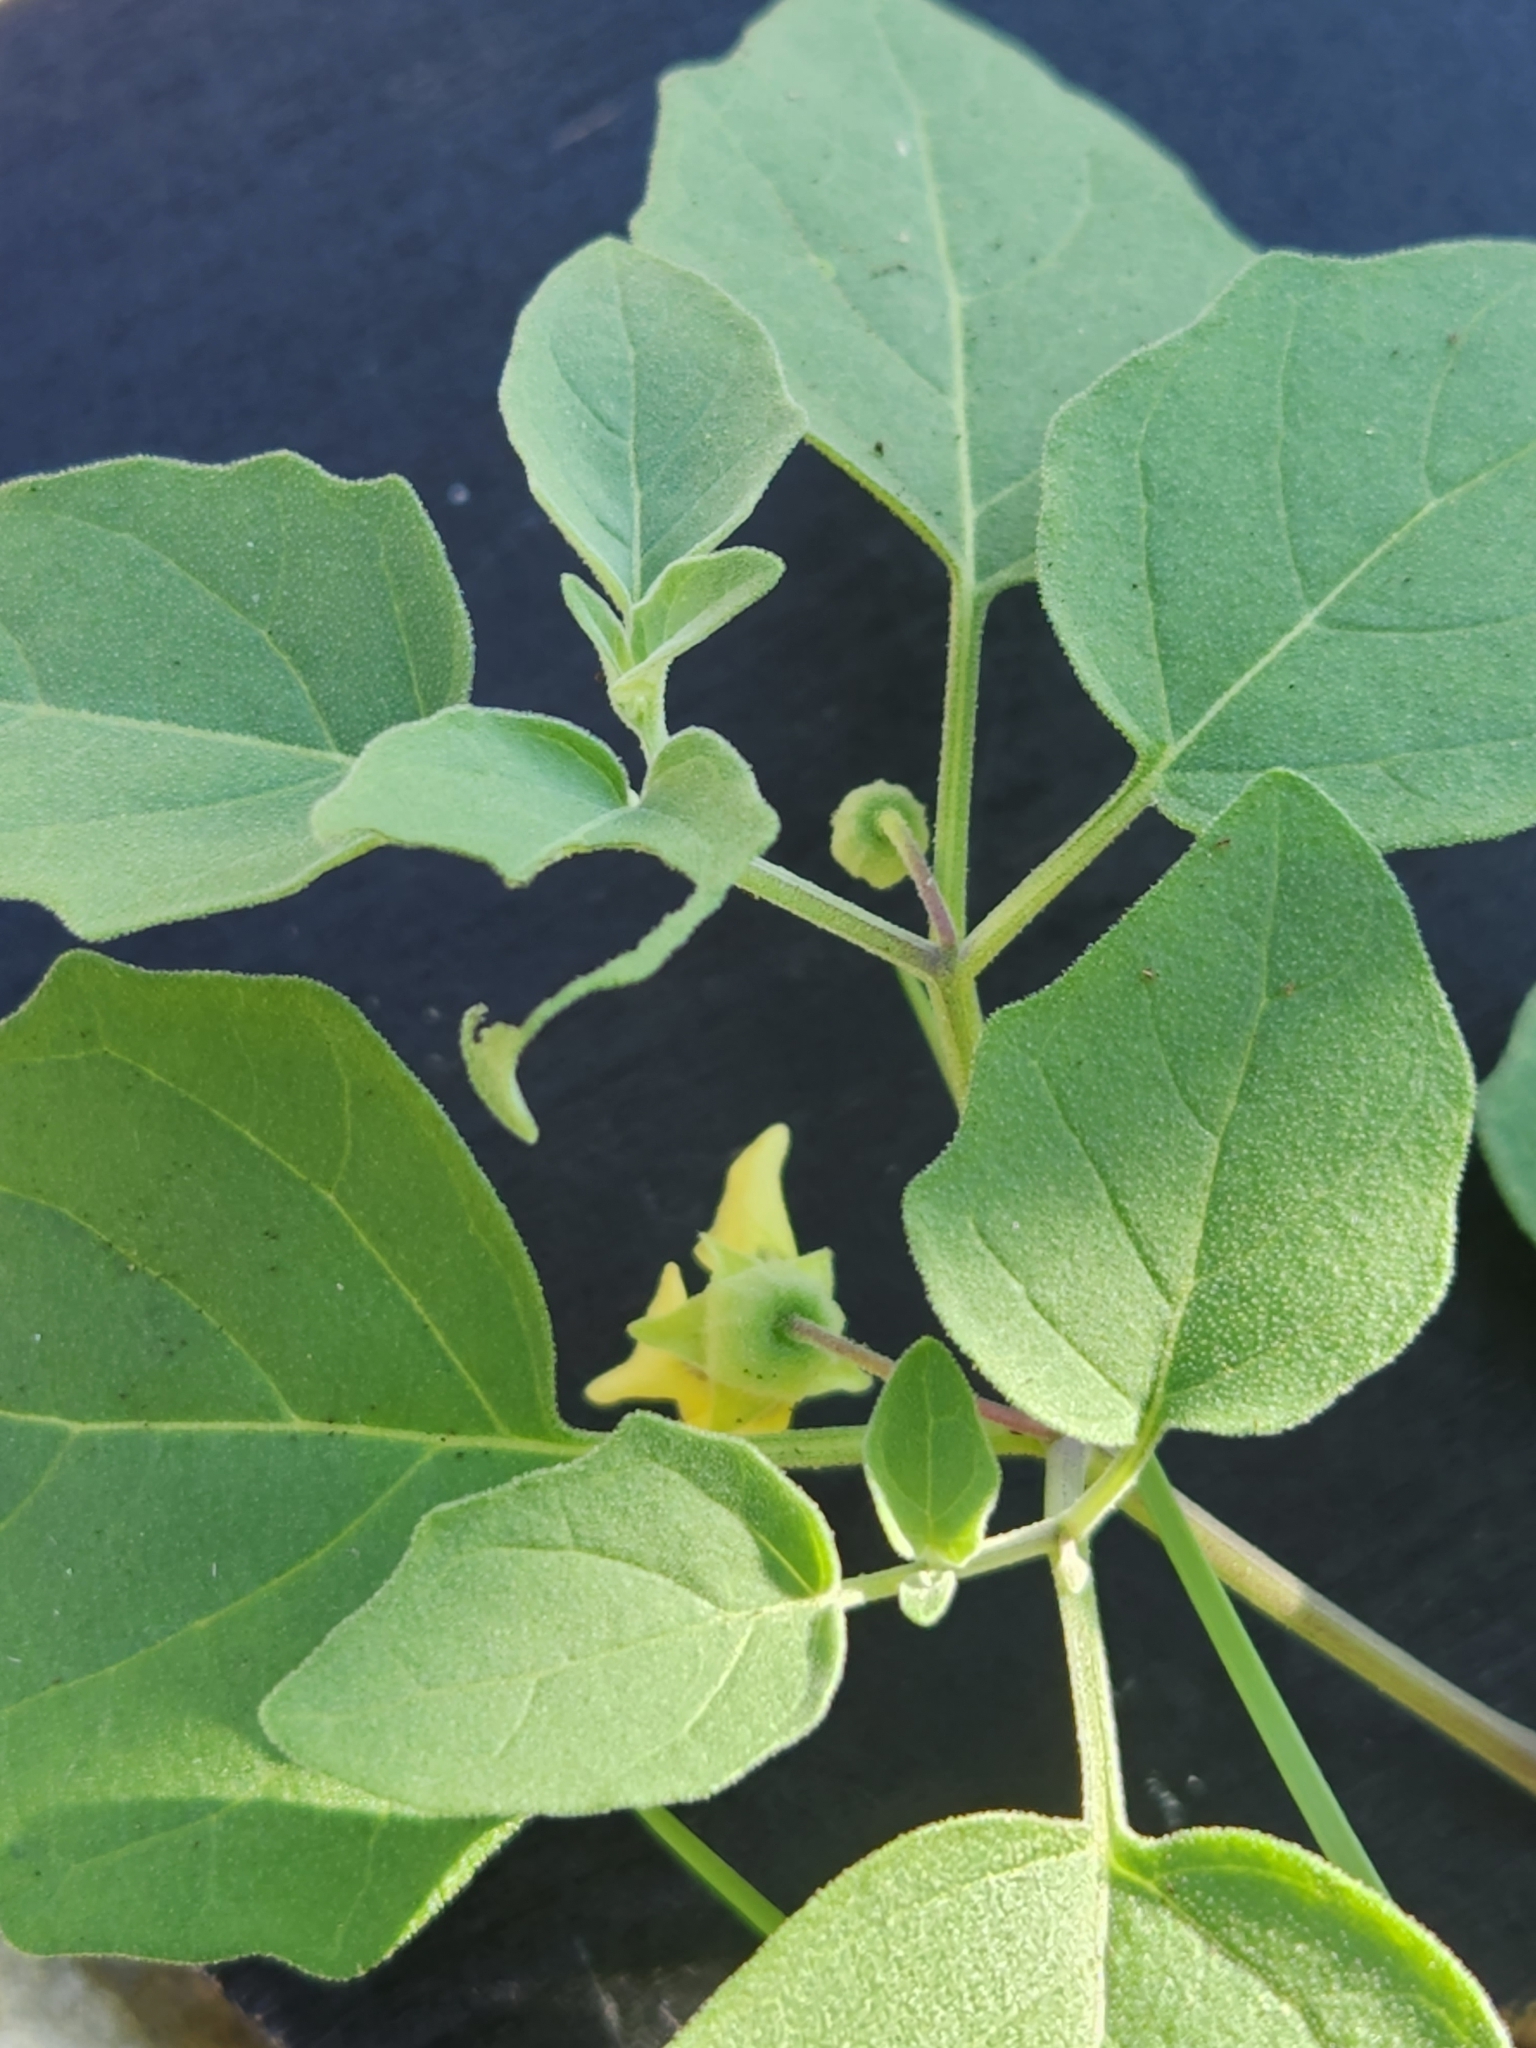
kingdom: Plantae
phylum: Tracheophyta
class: Magnoliopsida
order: Solanales
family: Solanaceae
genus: Physalis
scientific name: Physalis cinerascens
